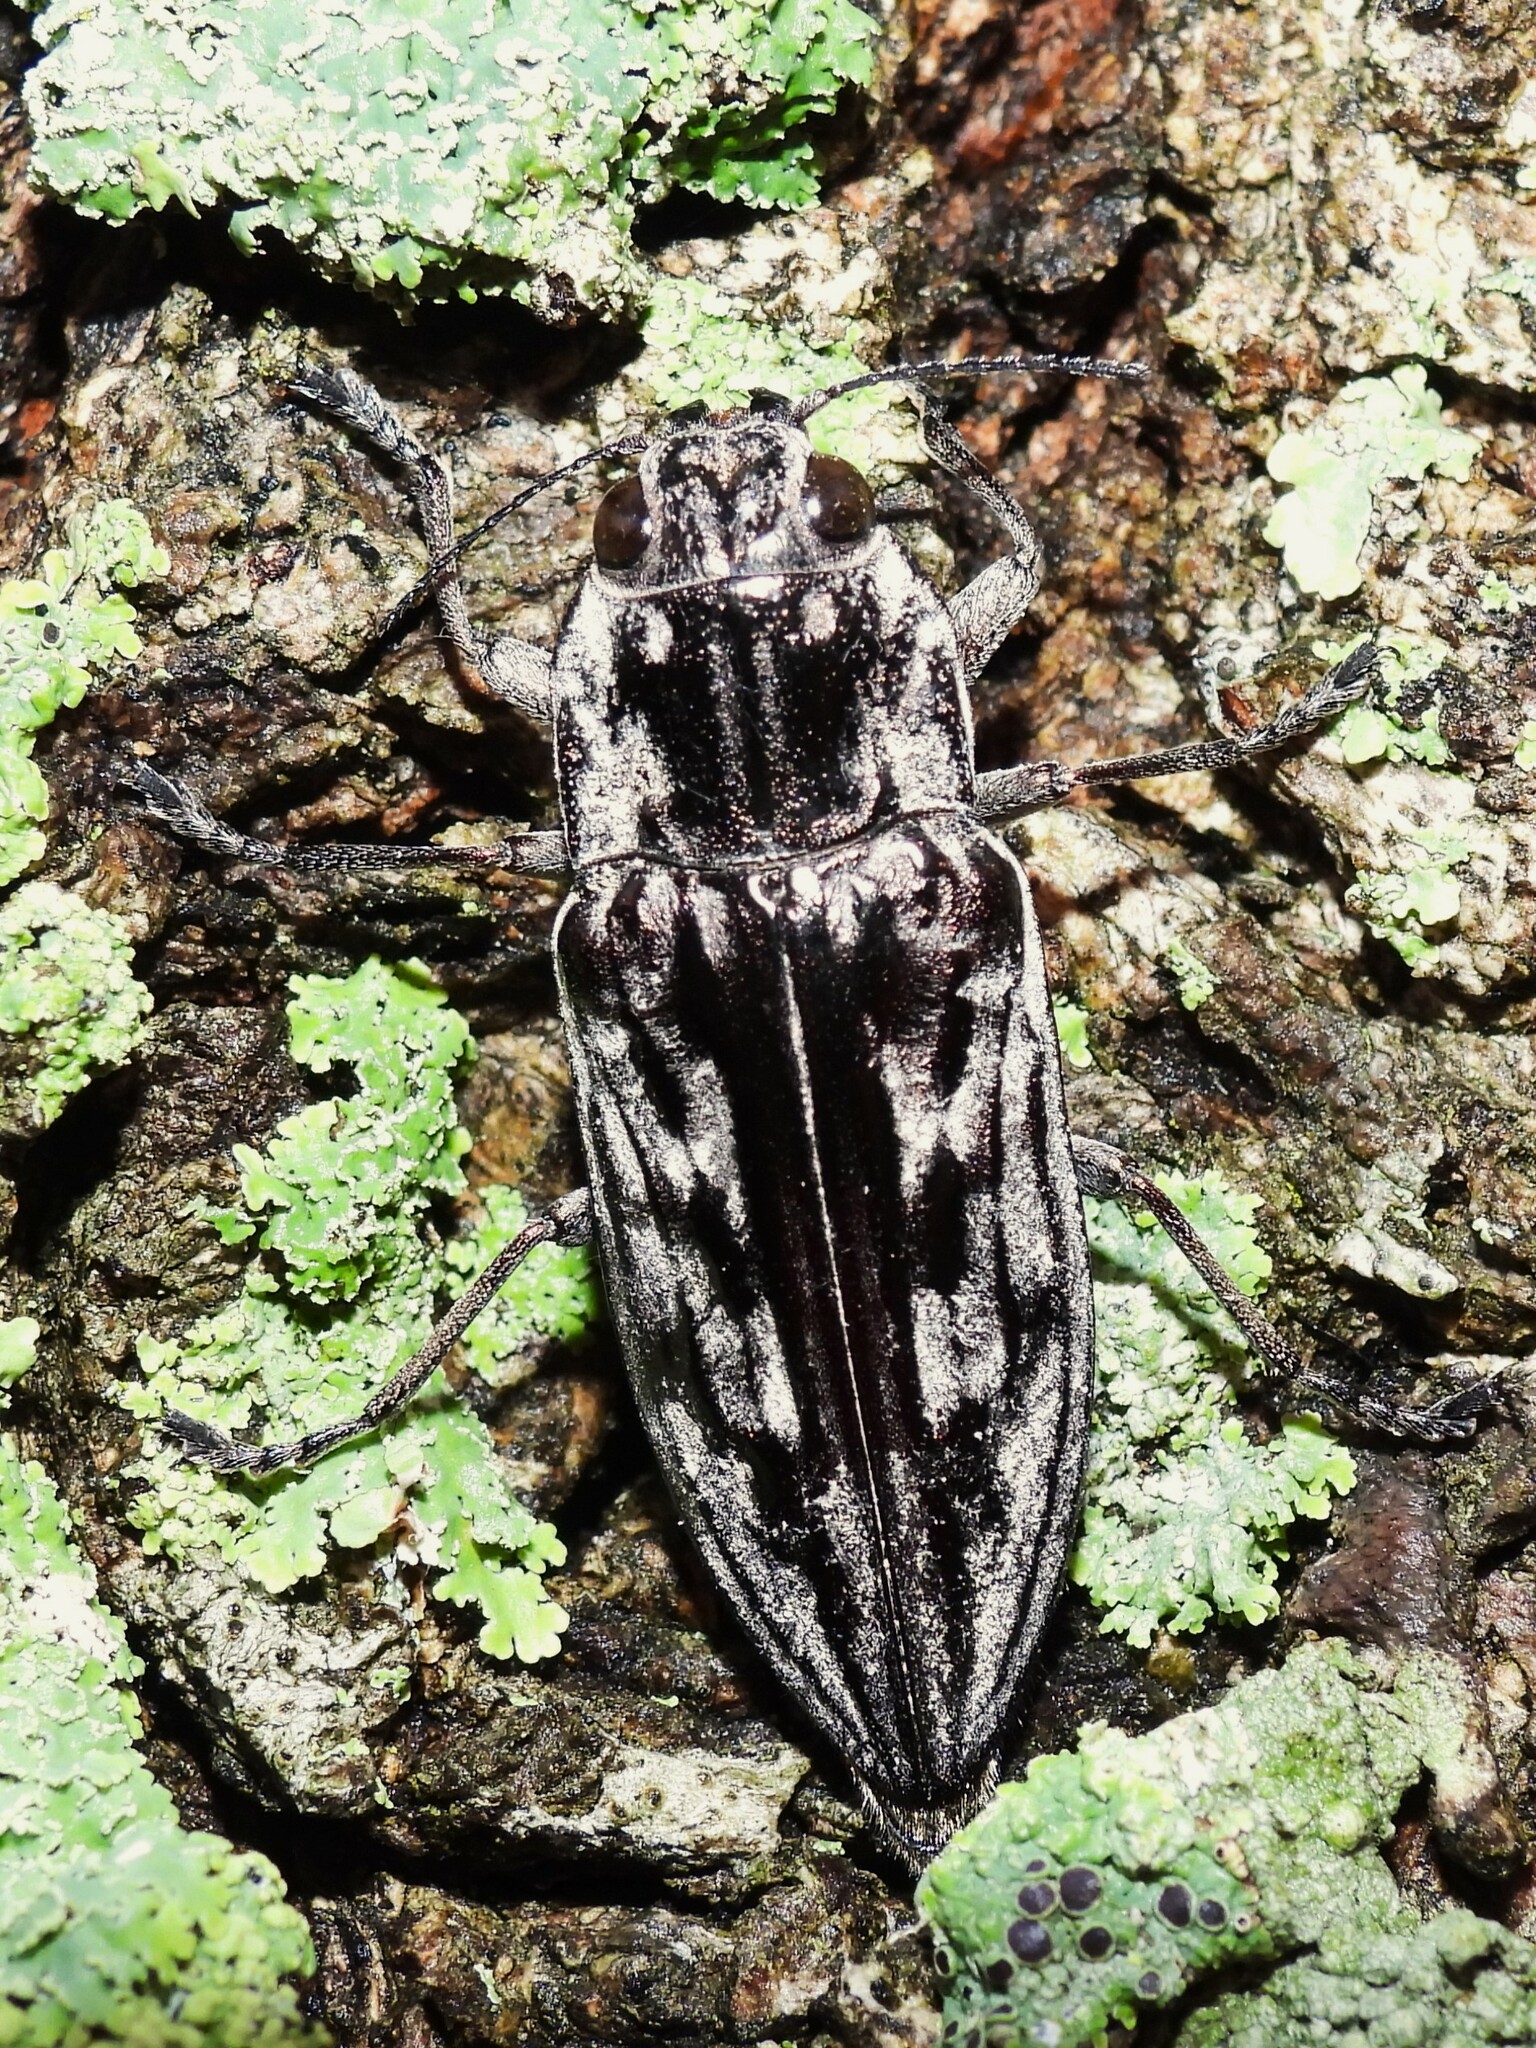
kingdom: Animalia
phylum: Arthropoda
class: Insecta
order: Coleoptera
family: Buprestidae
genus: Chalcophora
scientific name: Chalcophora virginiensis
